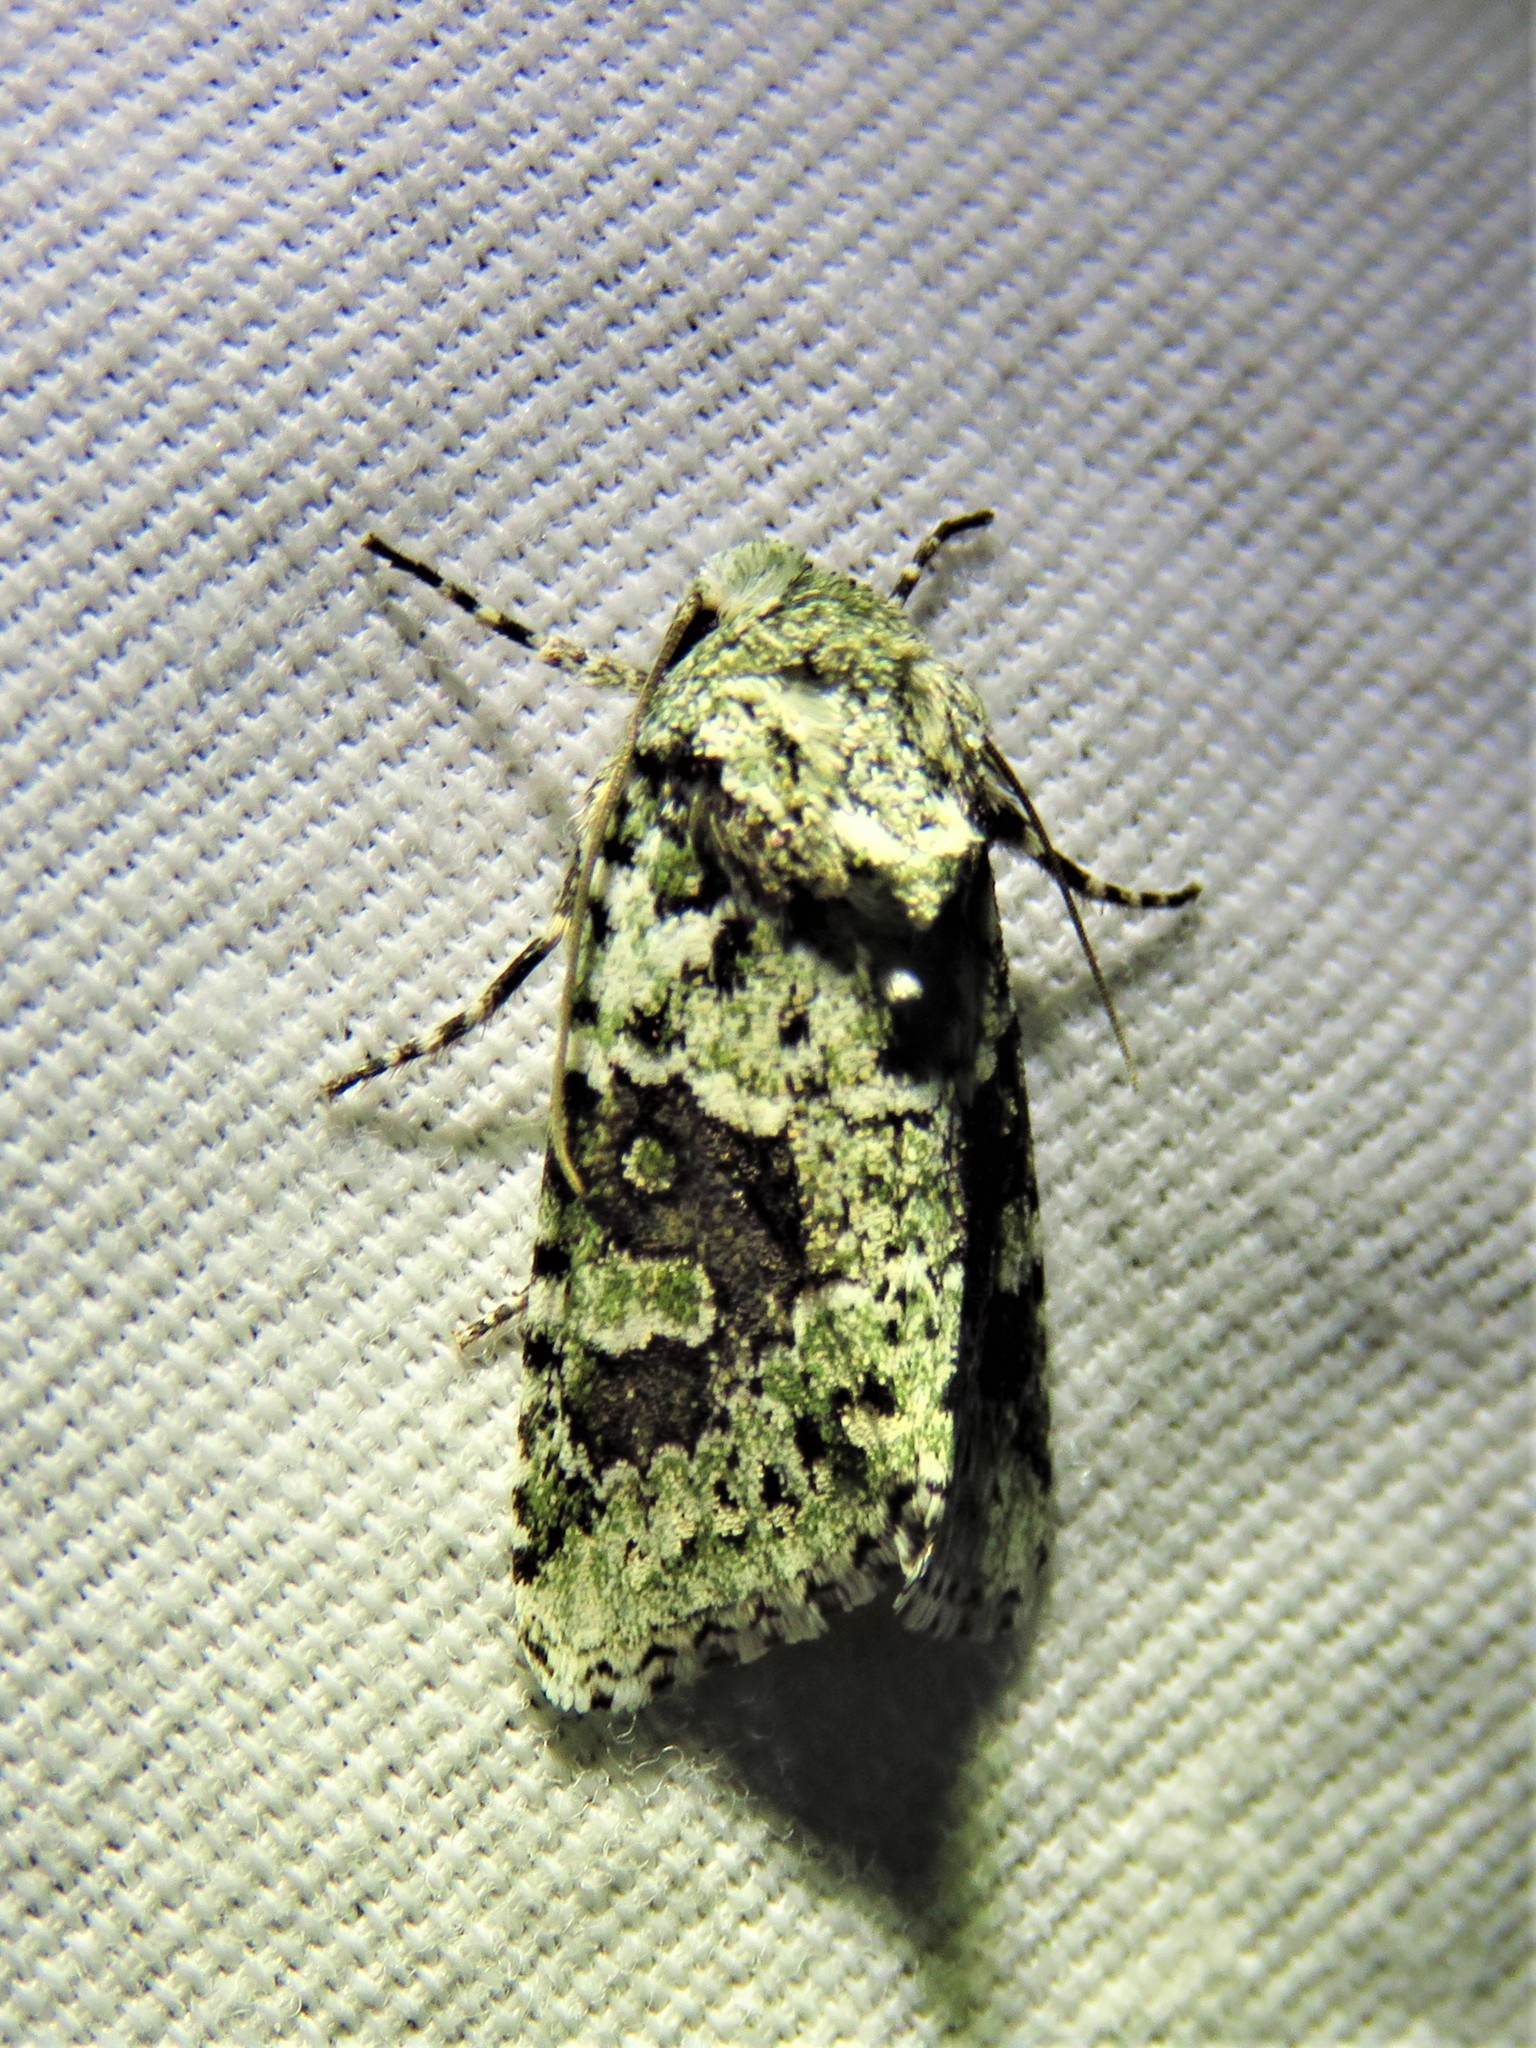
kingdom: Animalia
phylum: Arthropoda
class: Insecta
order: Lepidoptera
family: Noctuidae
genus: Lacinipolia
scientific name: Lacinipolia laudabilis
